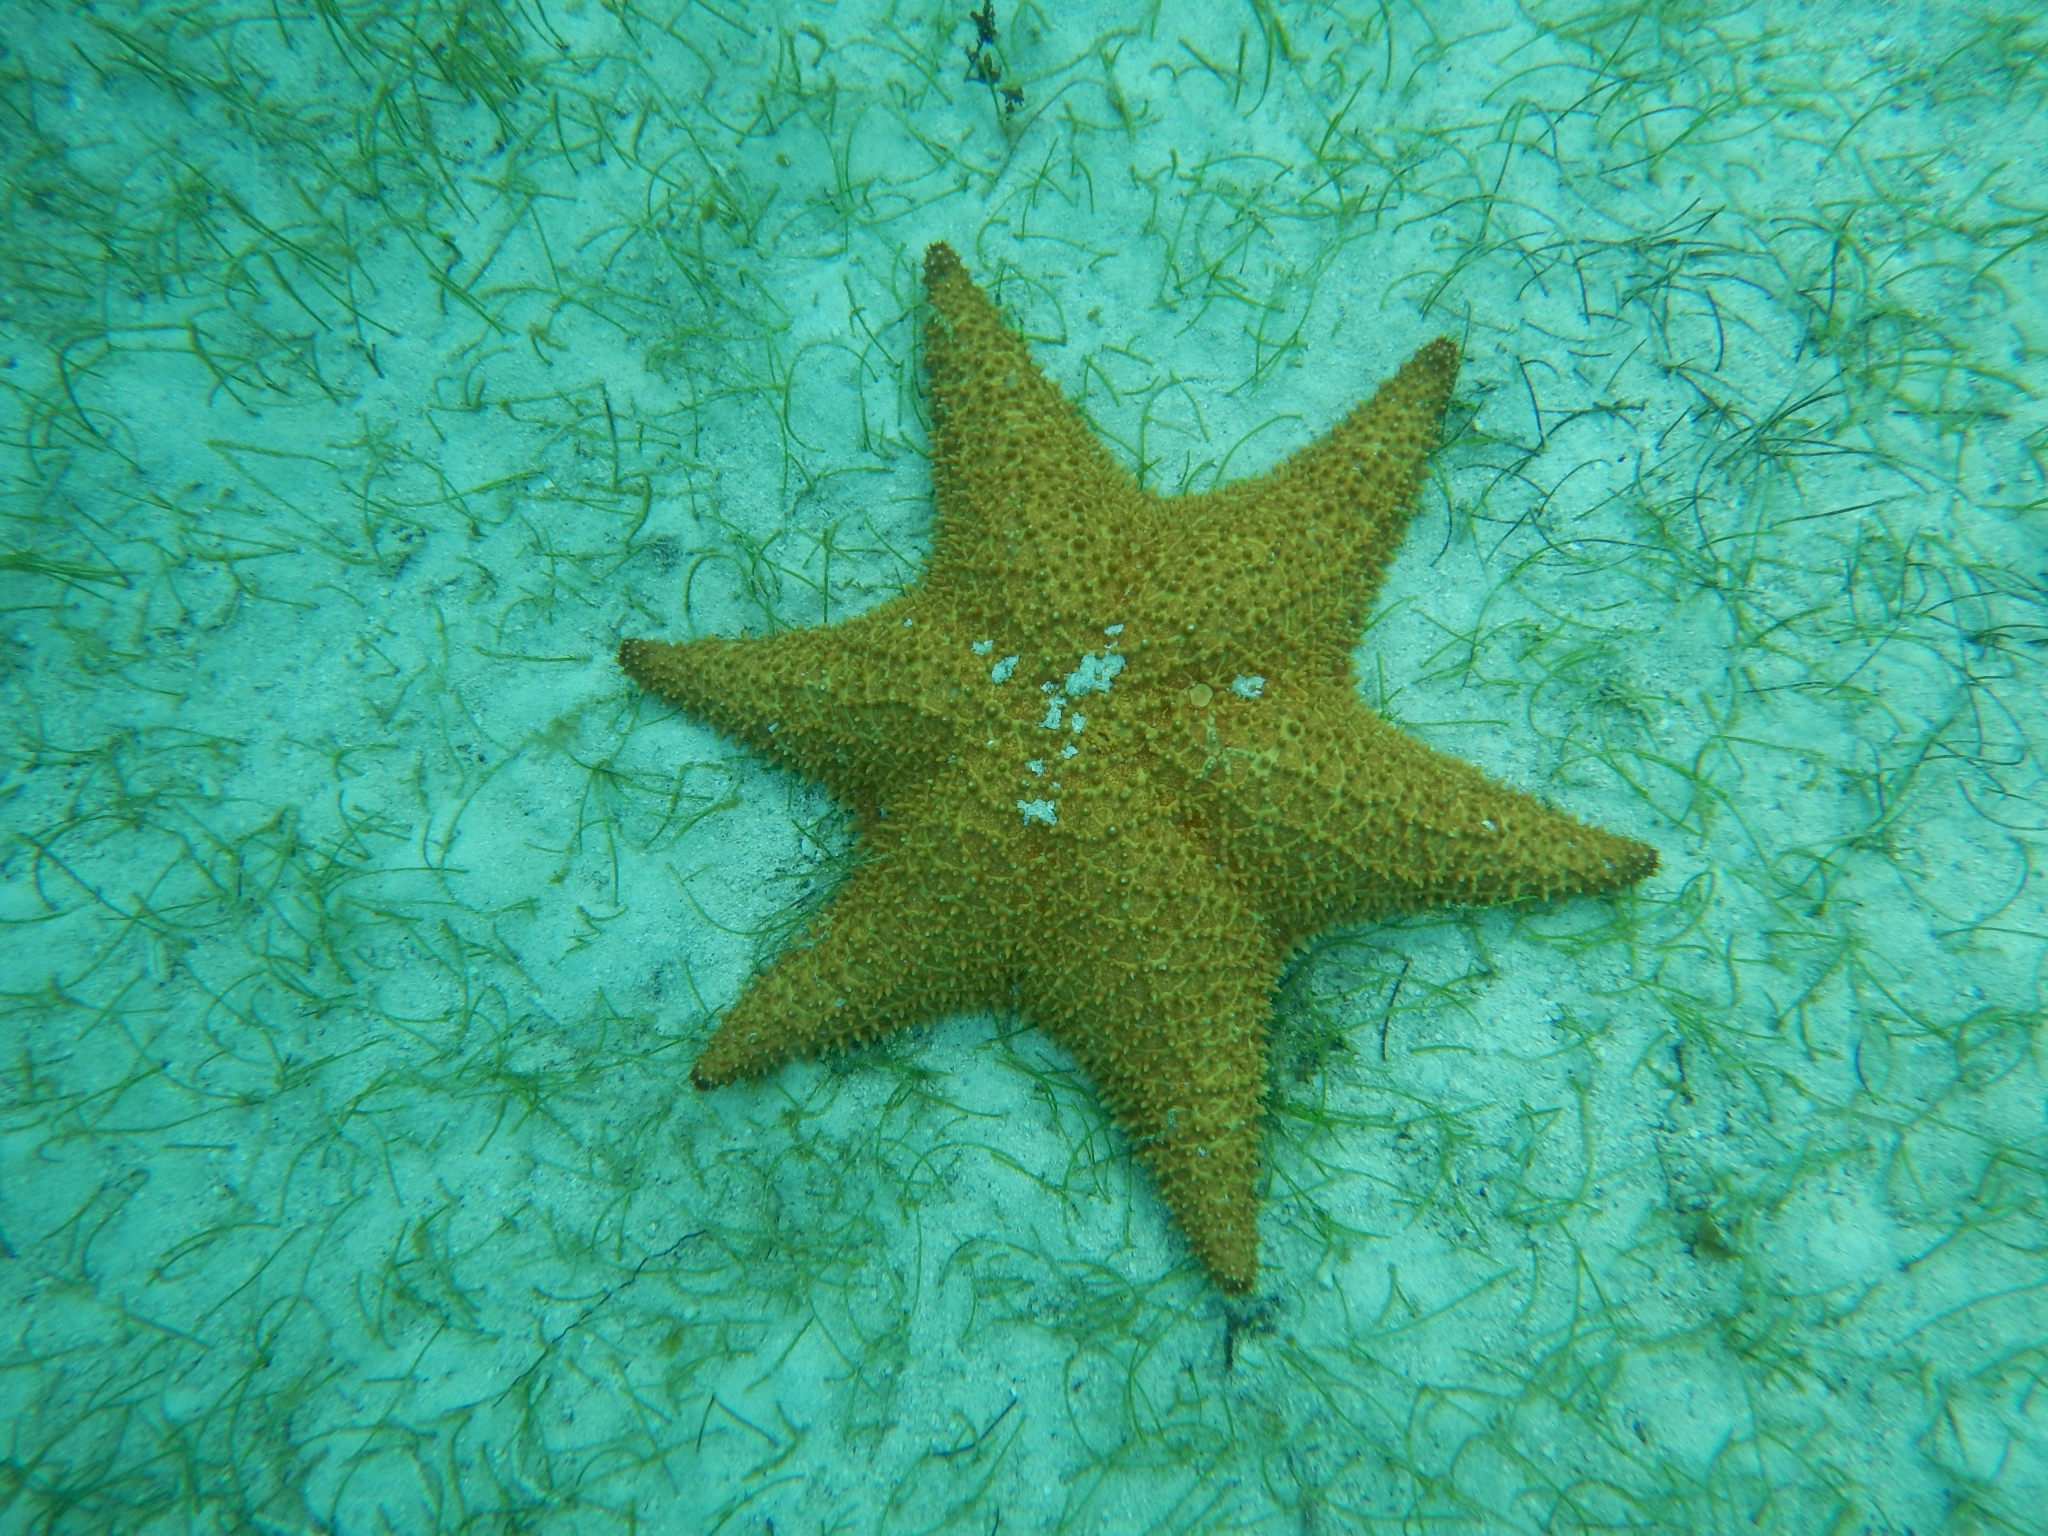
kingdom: Animalia
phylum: Echinodermata
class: Asteroidea
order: Valvatida
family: Oreasteridae
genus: Oreaster
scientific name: Oreaster reticulatus
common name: Cushion sea star
